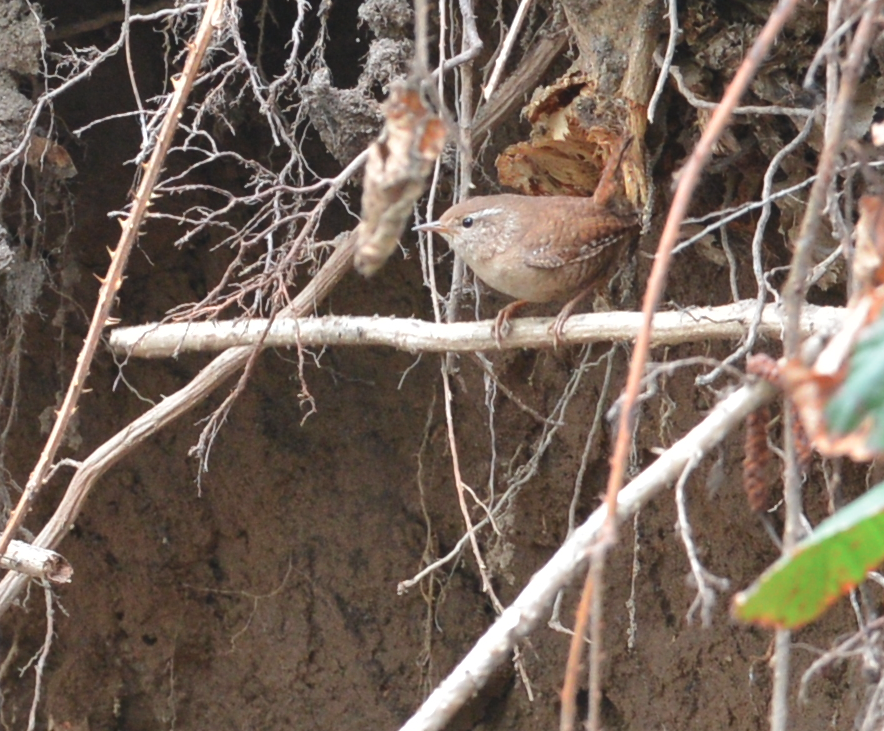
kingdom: Animalia
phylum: Chordata
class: Aves
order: Passeriformes
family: Troglodytidae
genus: Troglodytes
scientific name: Troglodytes troglodytes
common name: Eurasian wren
